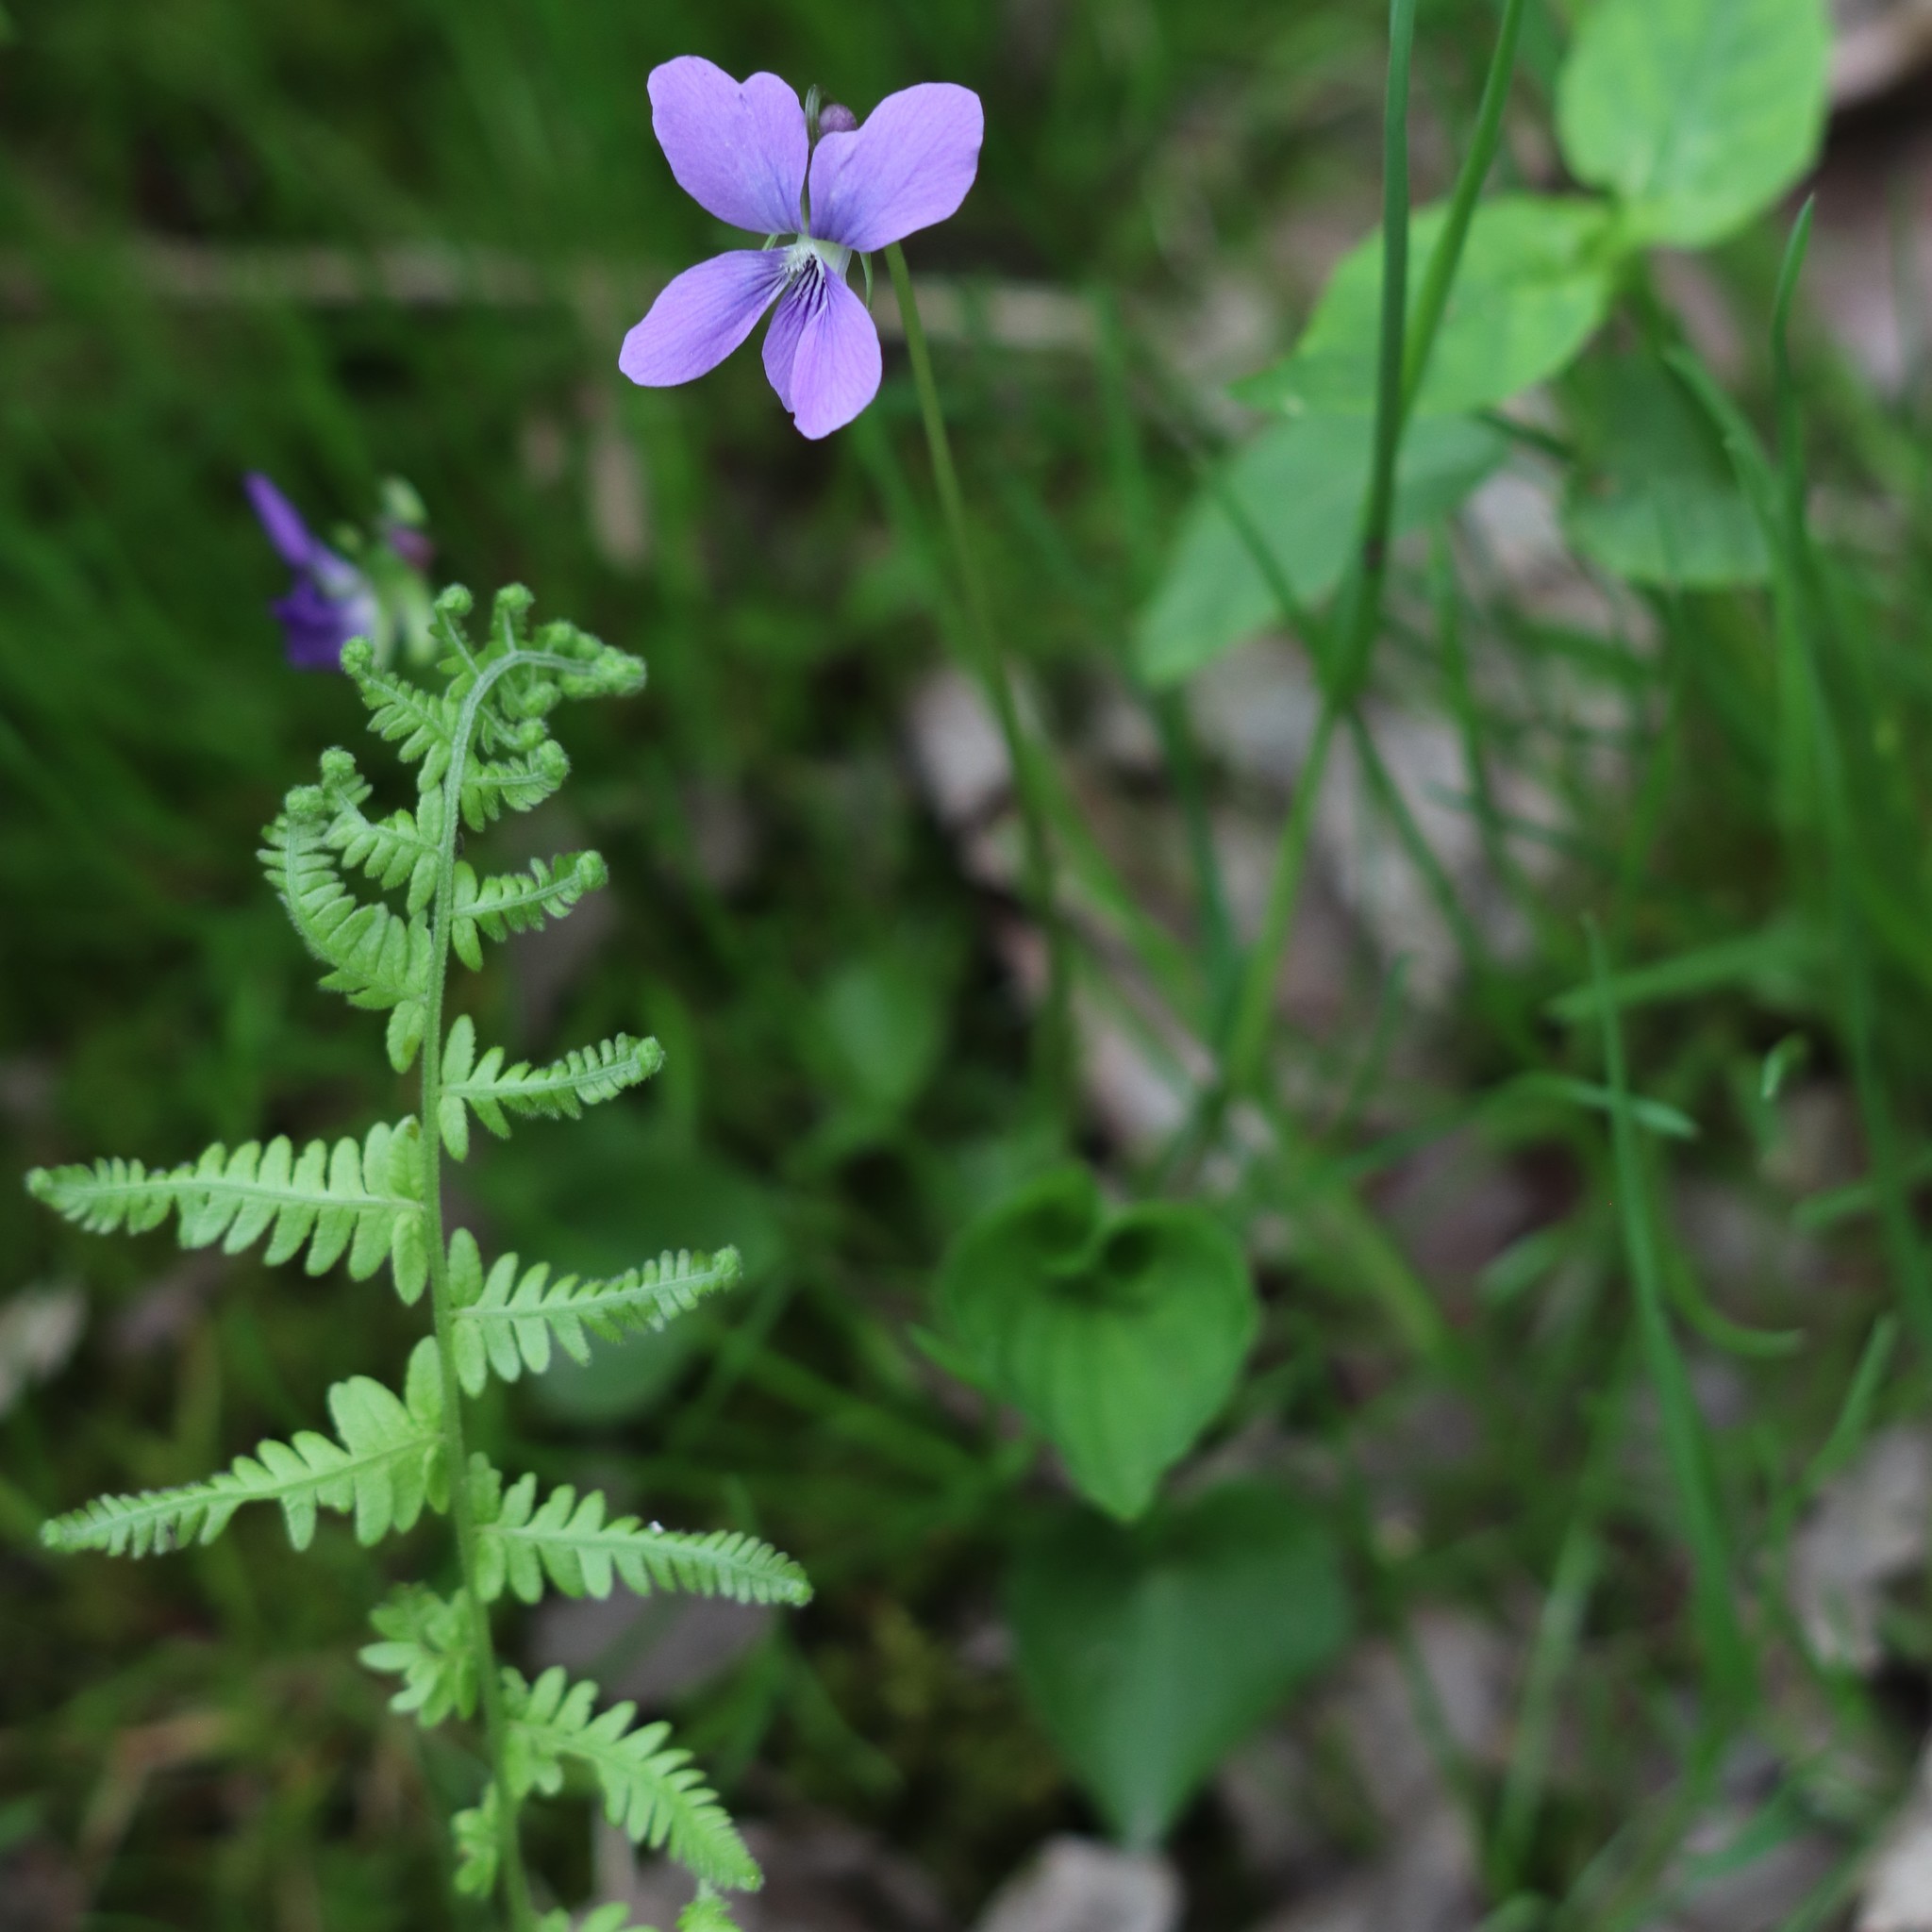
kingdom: Plantae
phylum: Tracheophyta
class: Magnoliopsida
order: Malpighiales
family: Violaceae
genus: Viola
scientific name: Viola cucullata
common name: Marsh blue violet
